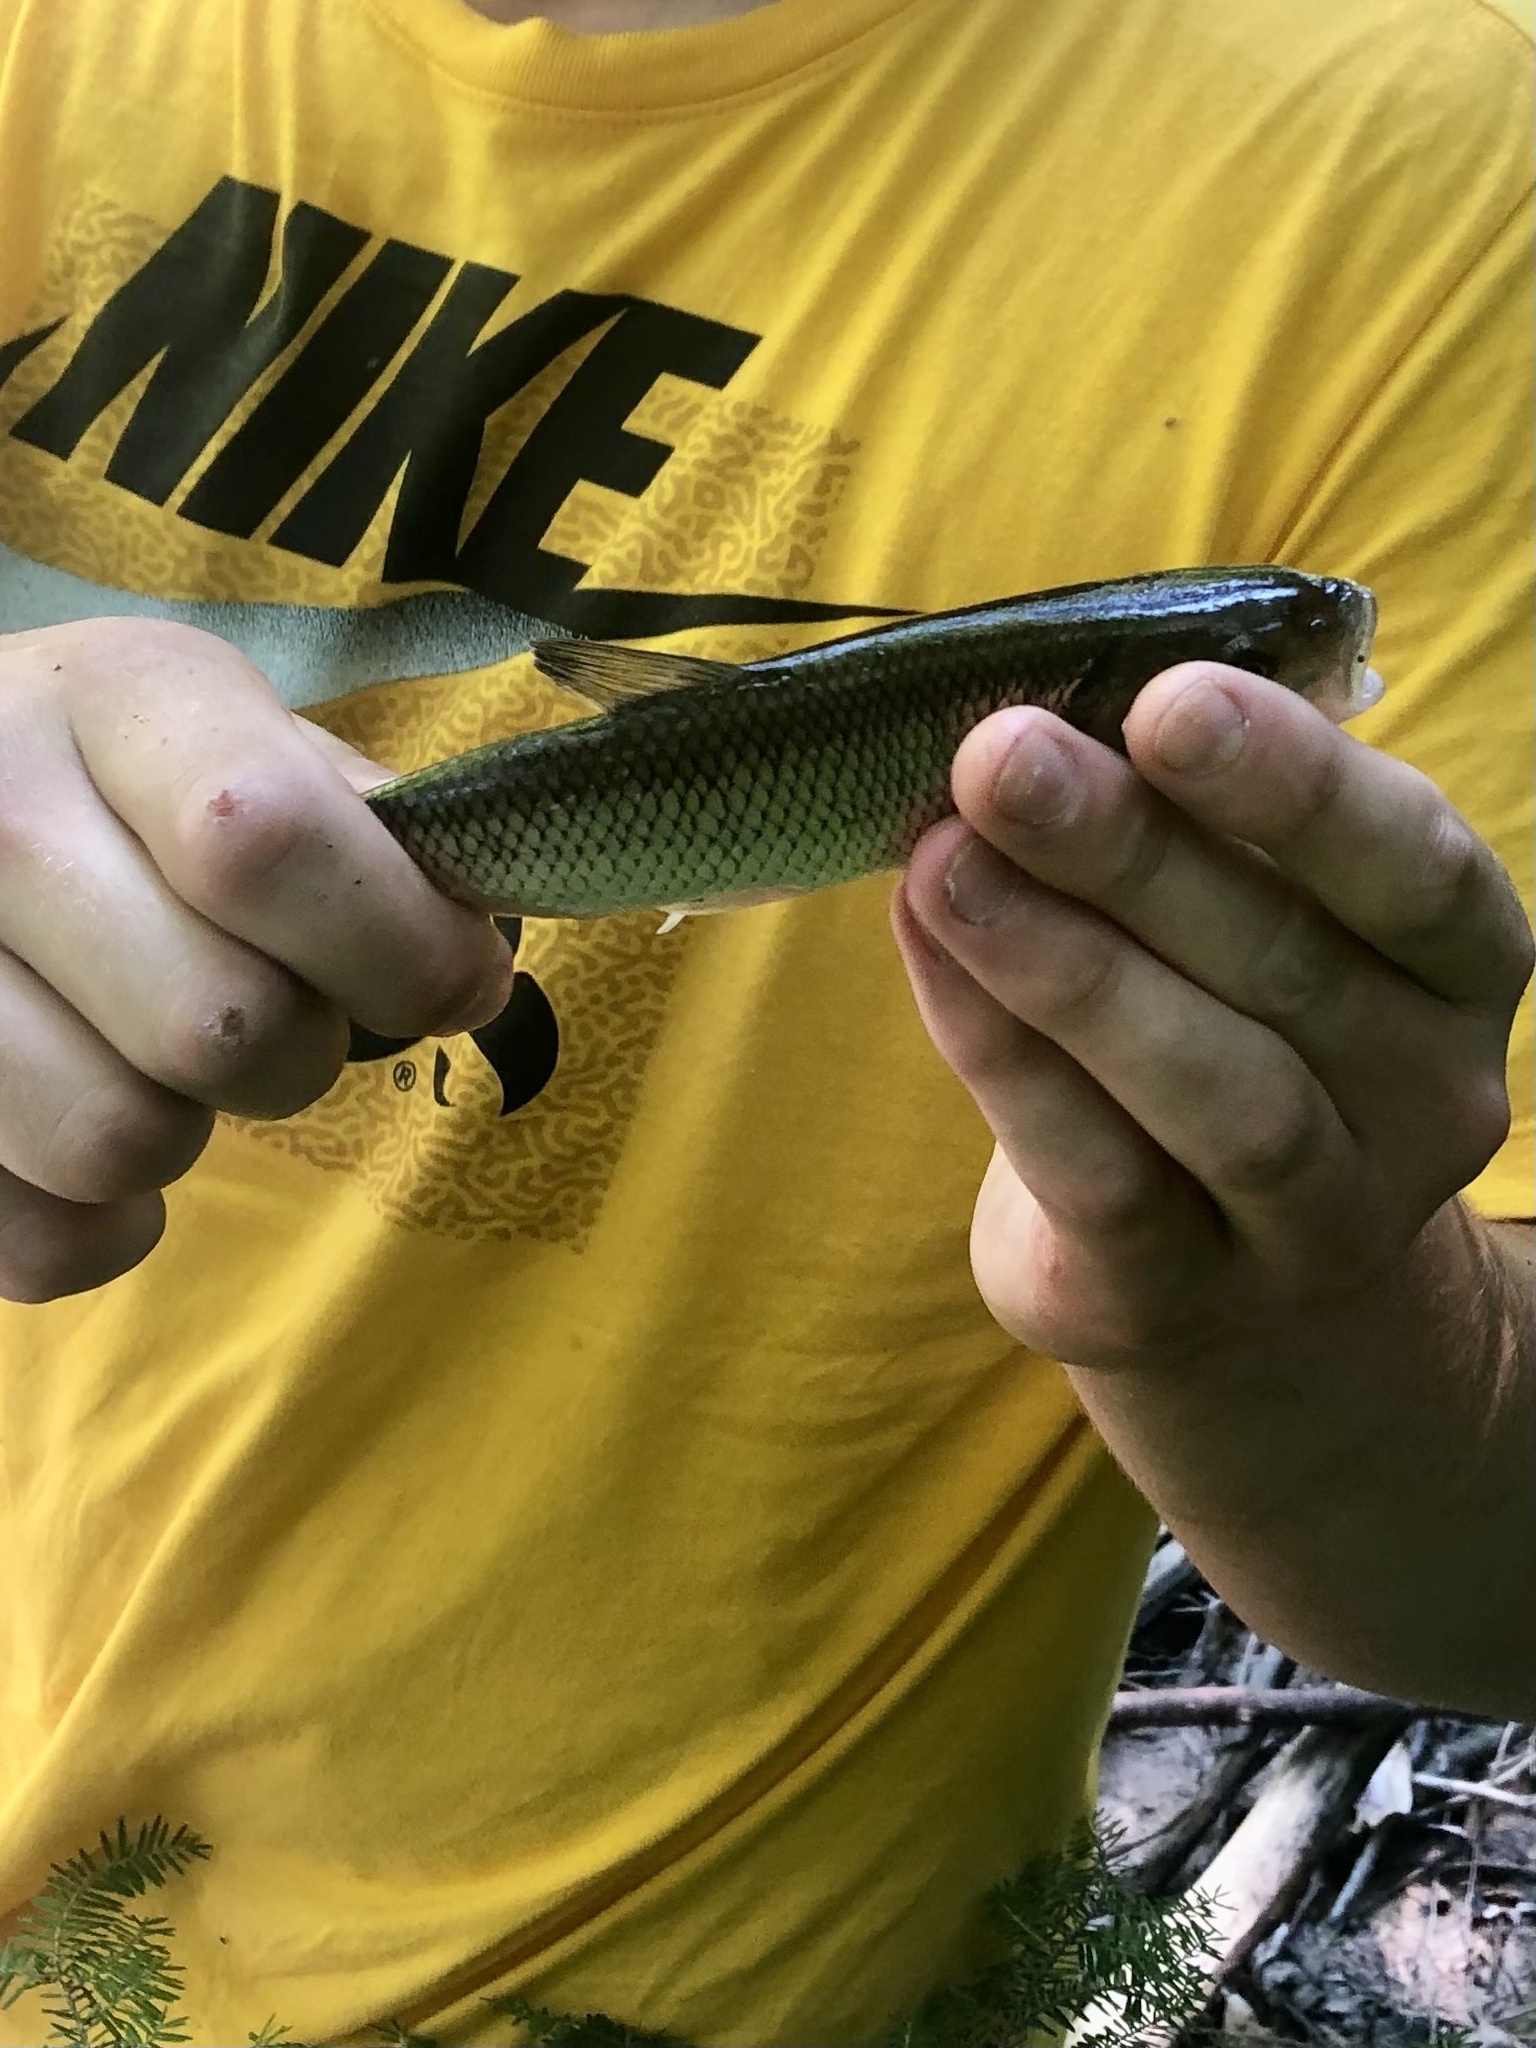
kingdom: Animalia
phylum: Chordata
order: Cypriniformes
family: Cyprinidae
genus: Semotilus
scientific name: Semotilus corporalis
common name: Fallfish
